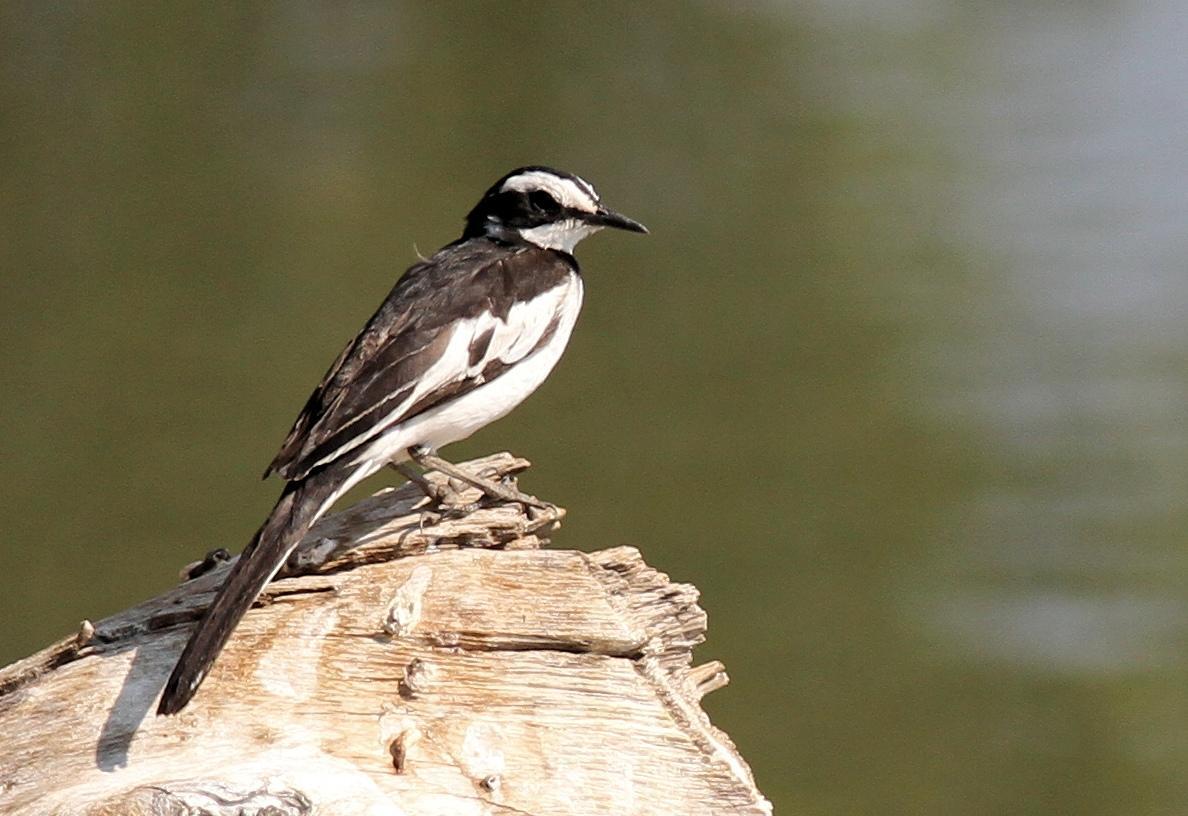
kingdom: Animalia
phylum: Chordata
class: Aves
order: Passeriformes
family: Motacillidae
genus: Motacilla
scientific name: Motacilla aguimp
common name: African pied wagtail
